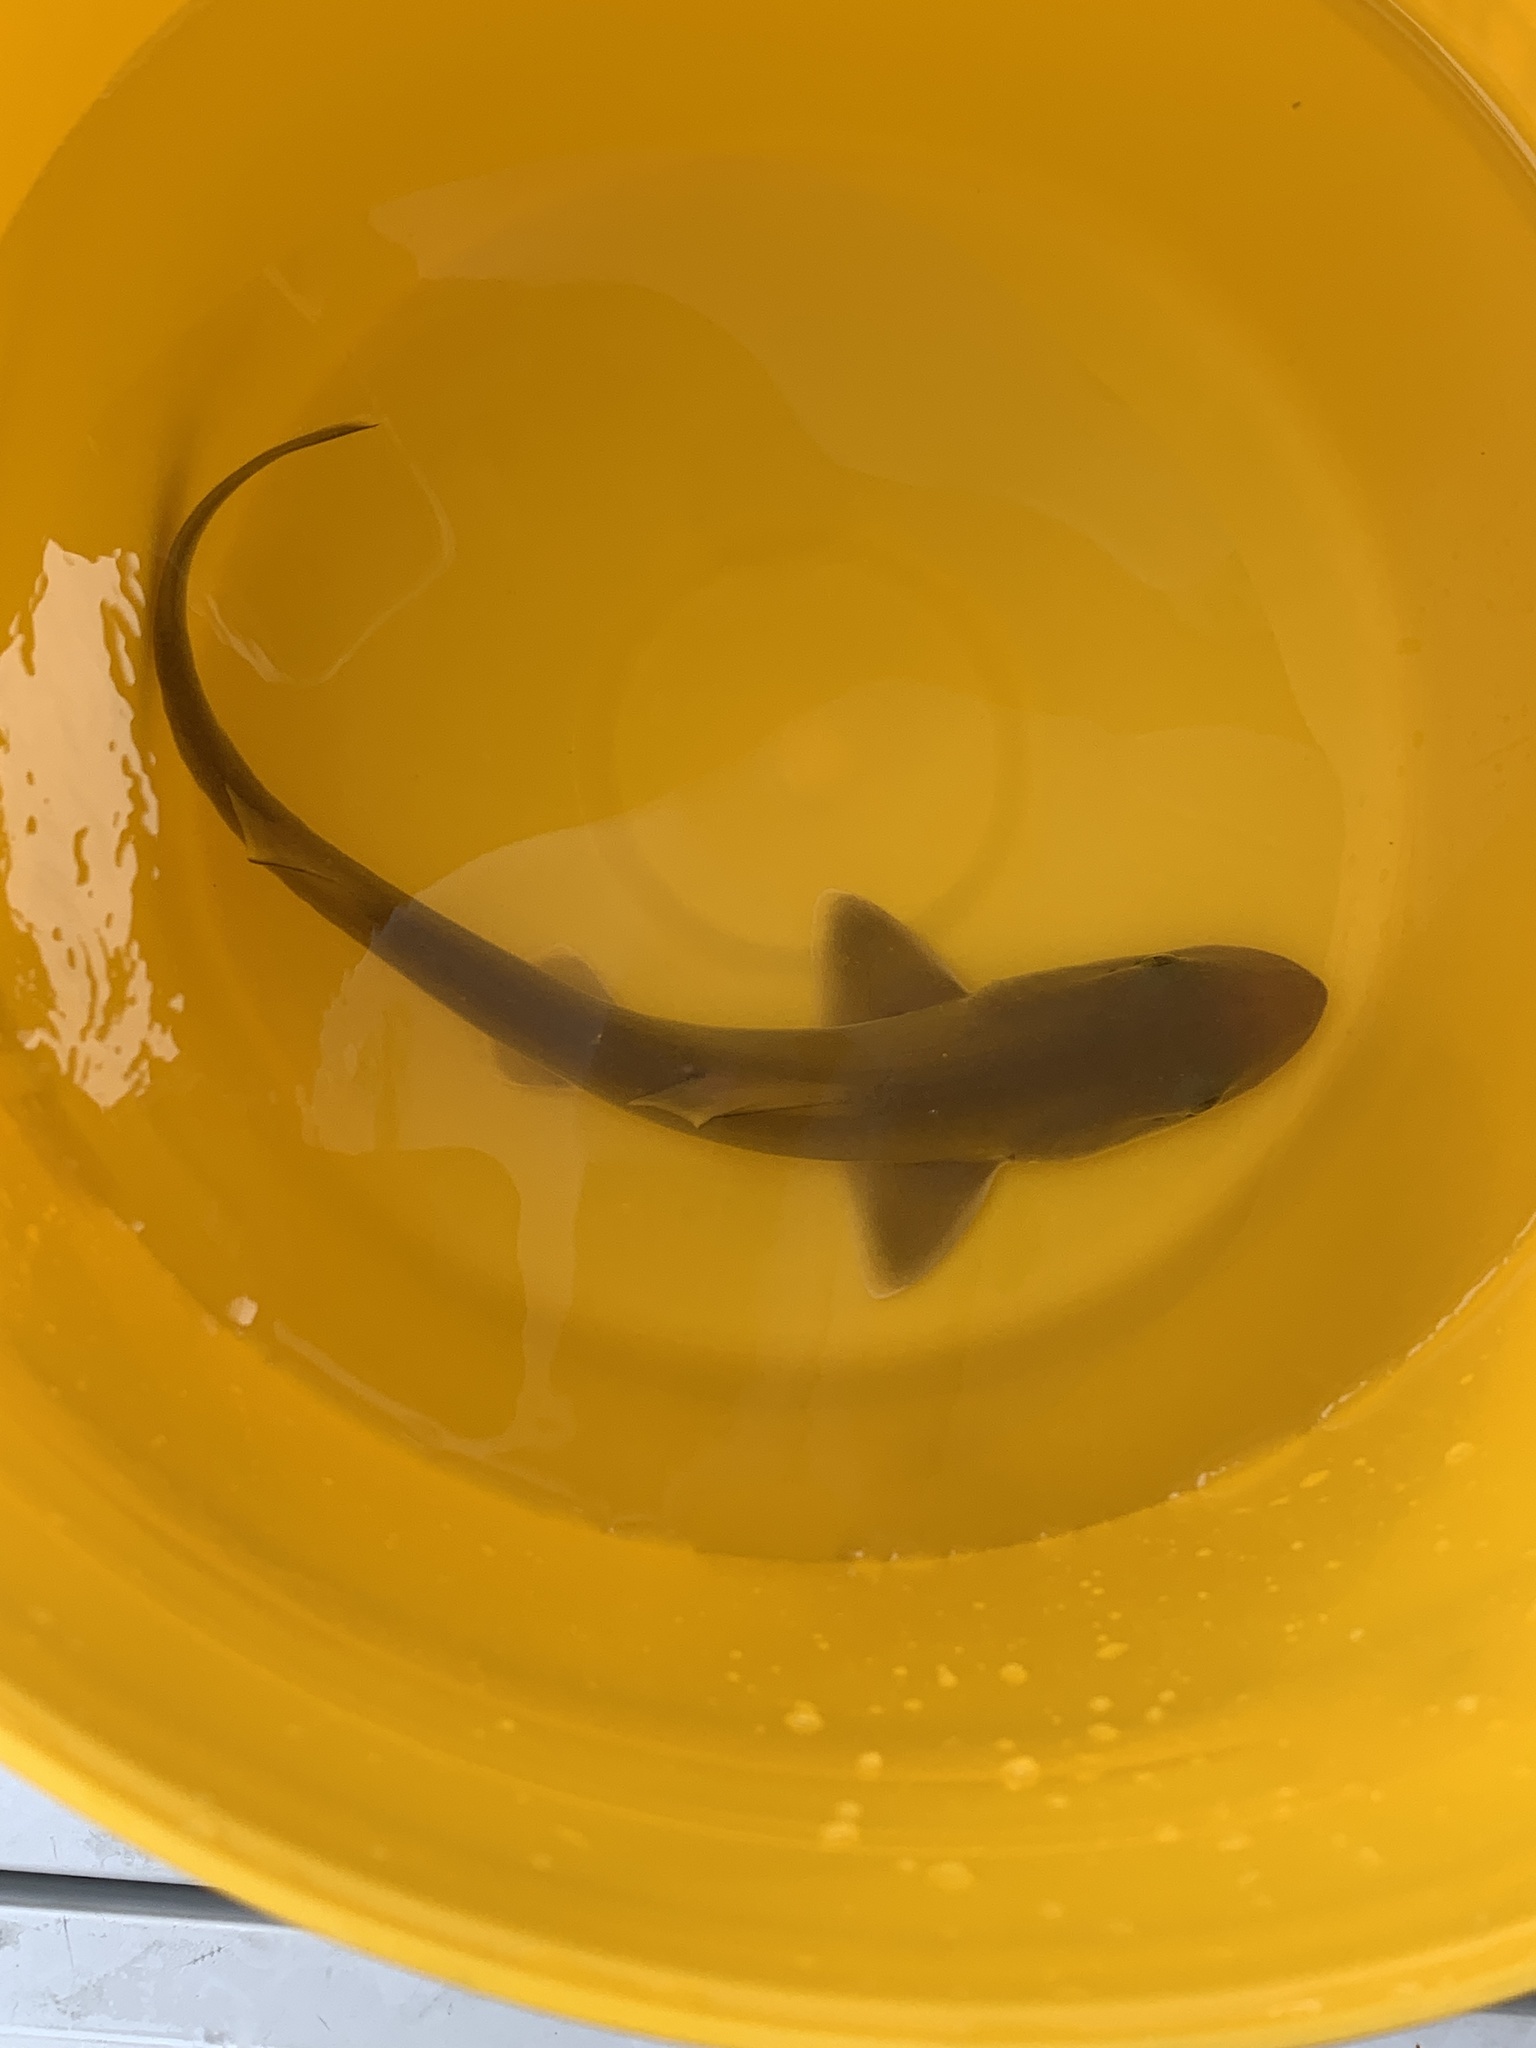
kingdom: Animalia
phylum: Chordata
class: Elasmobranchii
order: Carcharhiniformes
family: Triakidae
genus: Mustelus
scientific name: Mustelus canis
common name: Smooth dogfish
